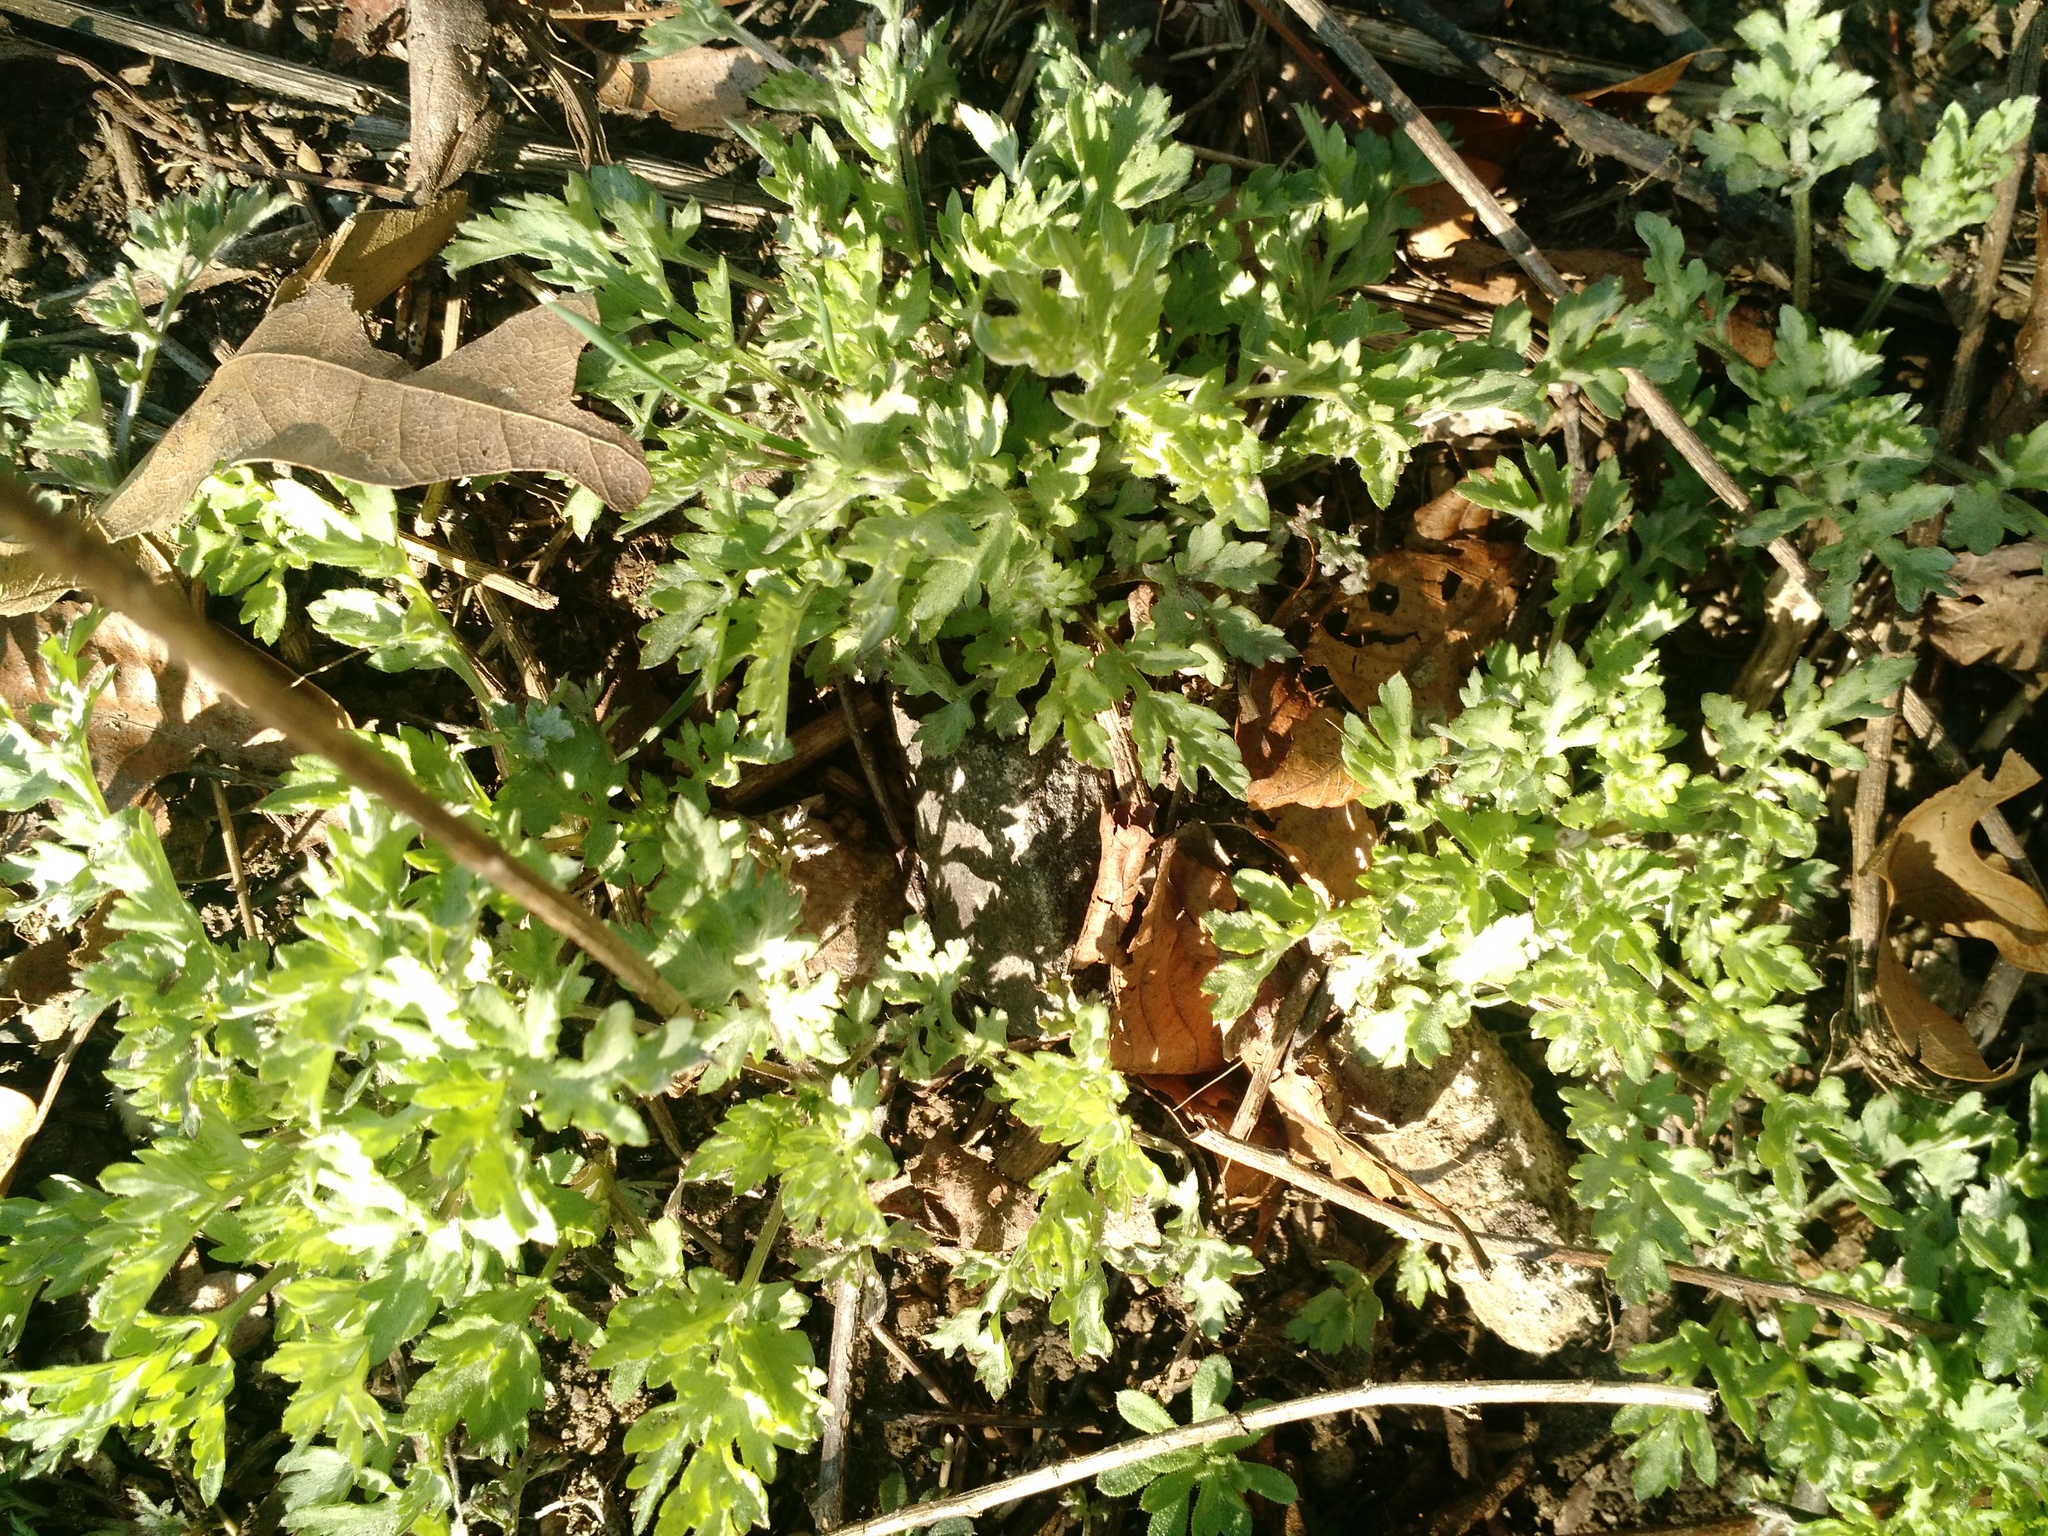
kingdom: Plantae
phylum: Tracheophyta
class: Magnoliopsida
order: Asterales
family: Asteraceae
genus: Artemisia
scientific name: Artemisia vulgaris
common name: Mugwort
